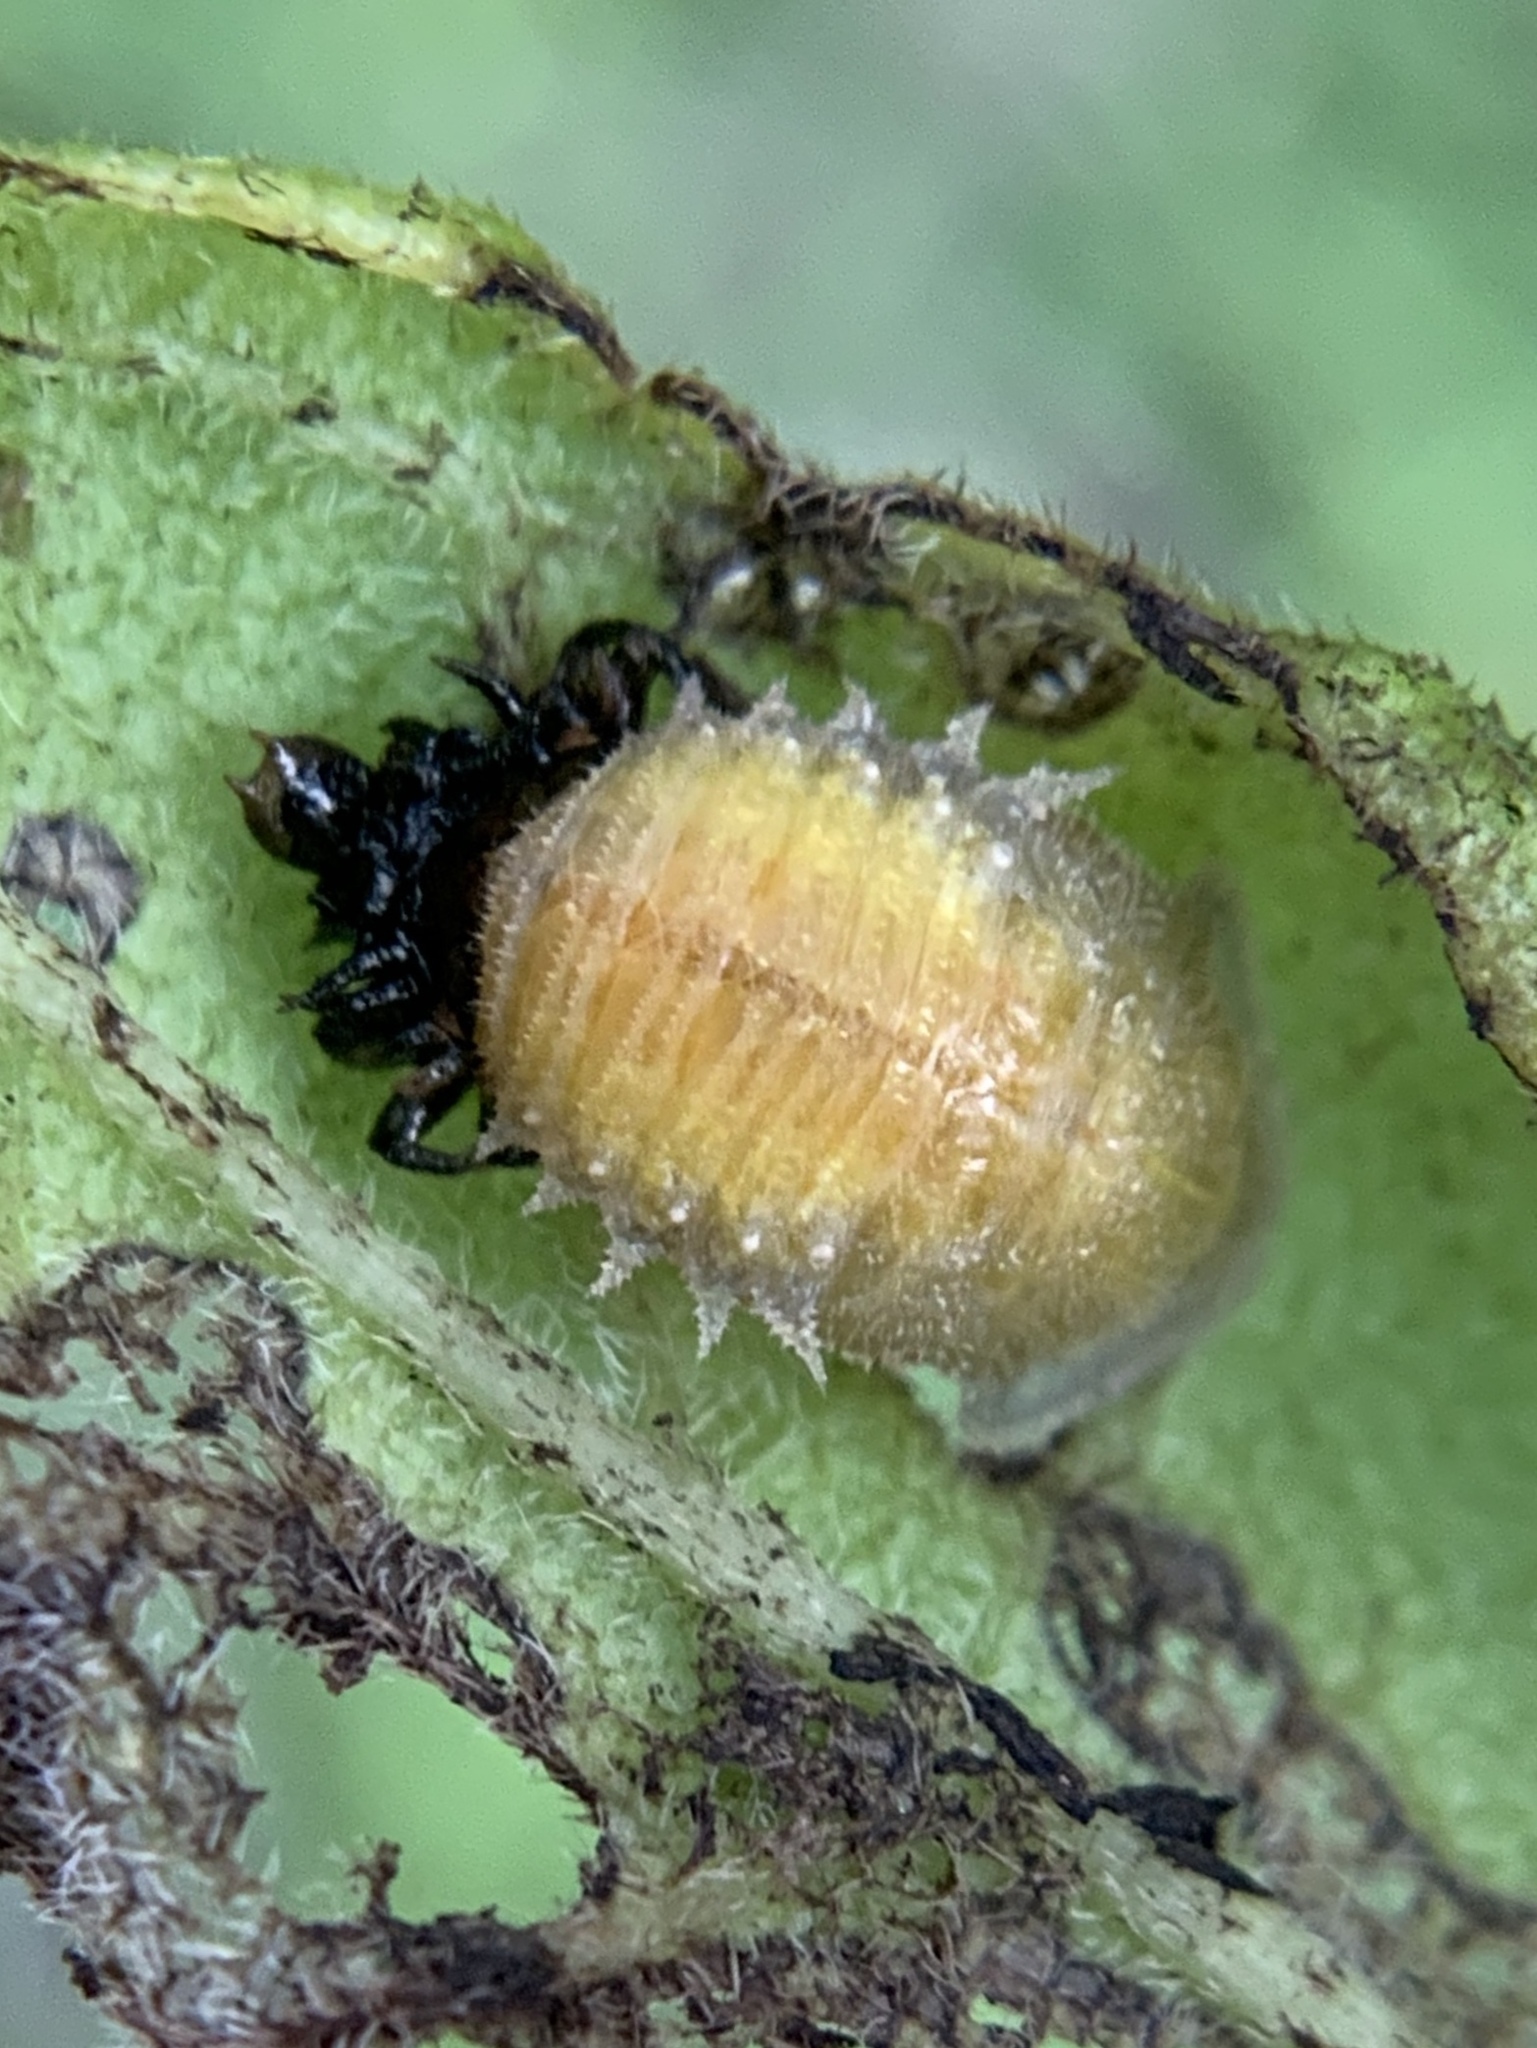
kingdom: Animalia
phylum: Arthropoda
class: Insecta
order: Coleoptera
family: Chrysomelidae
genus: Eurypepla
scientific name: Eurypepla calochroma
